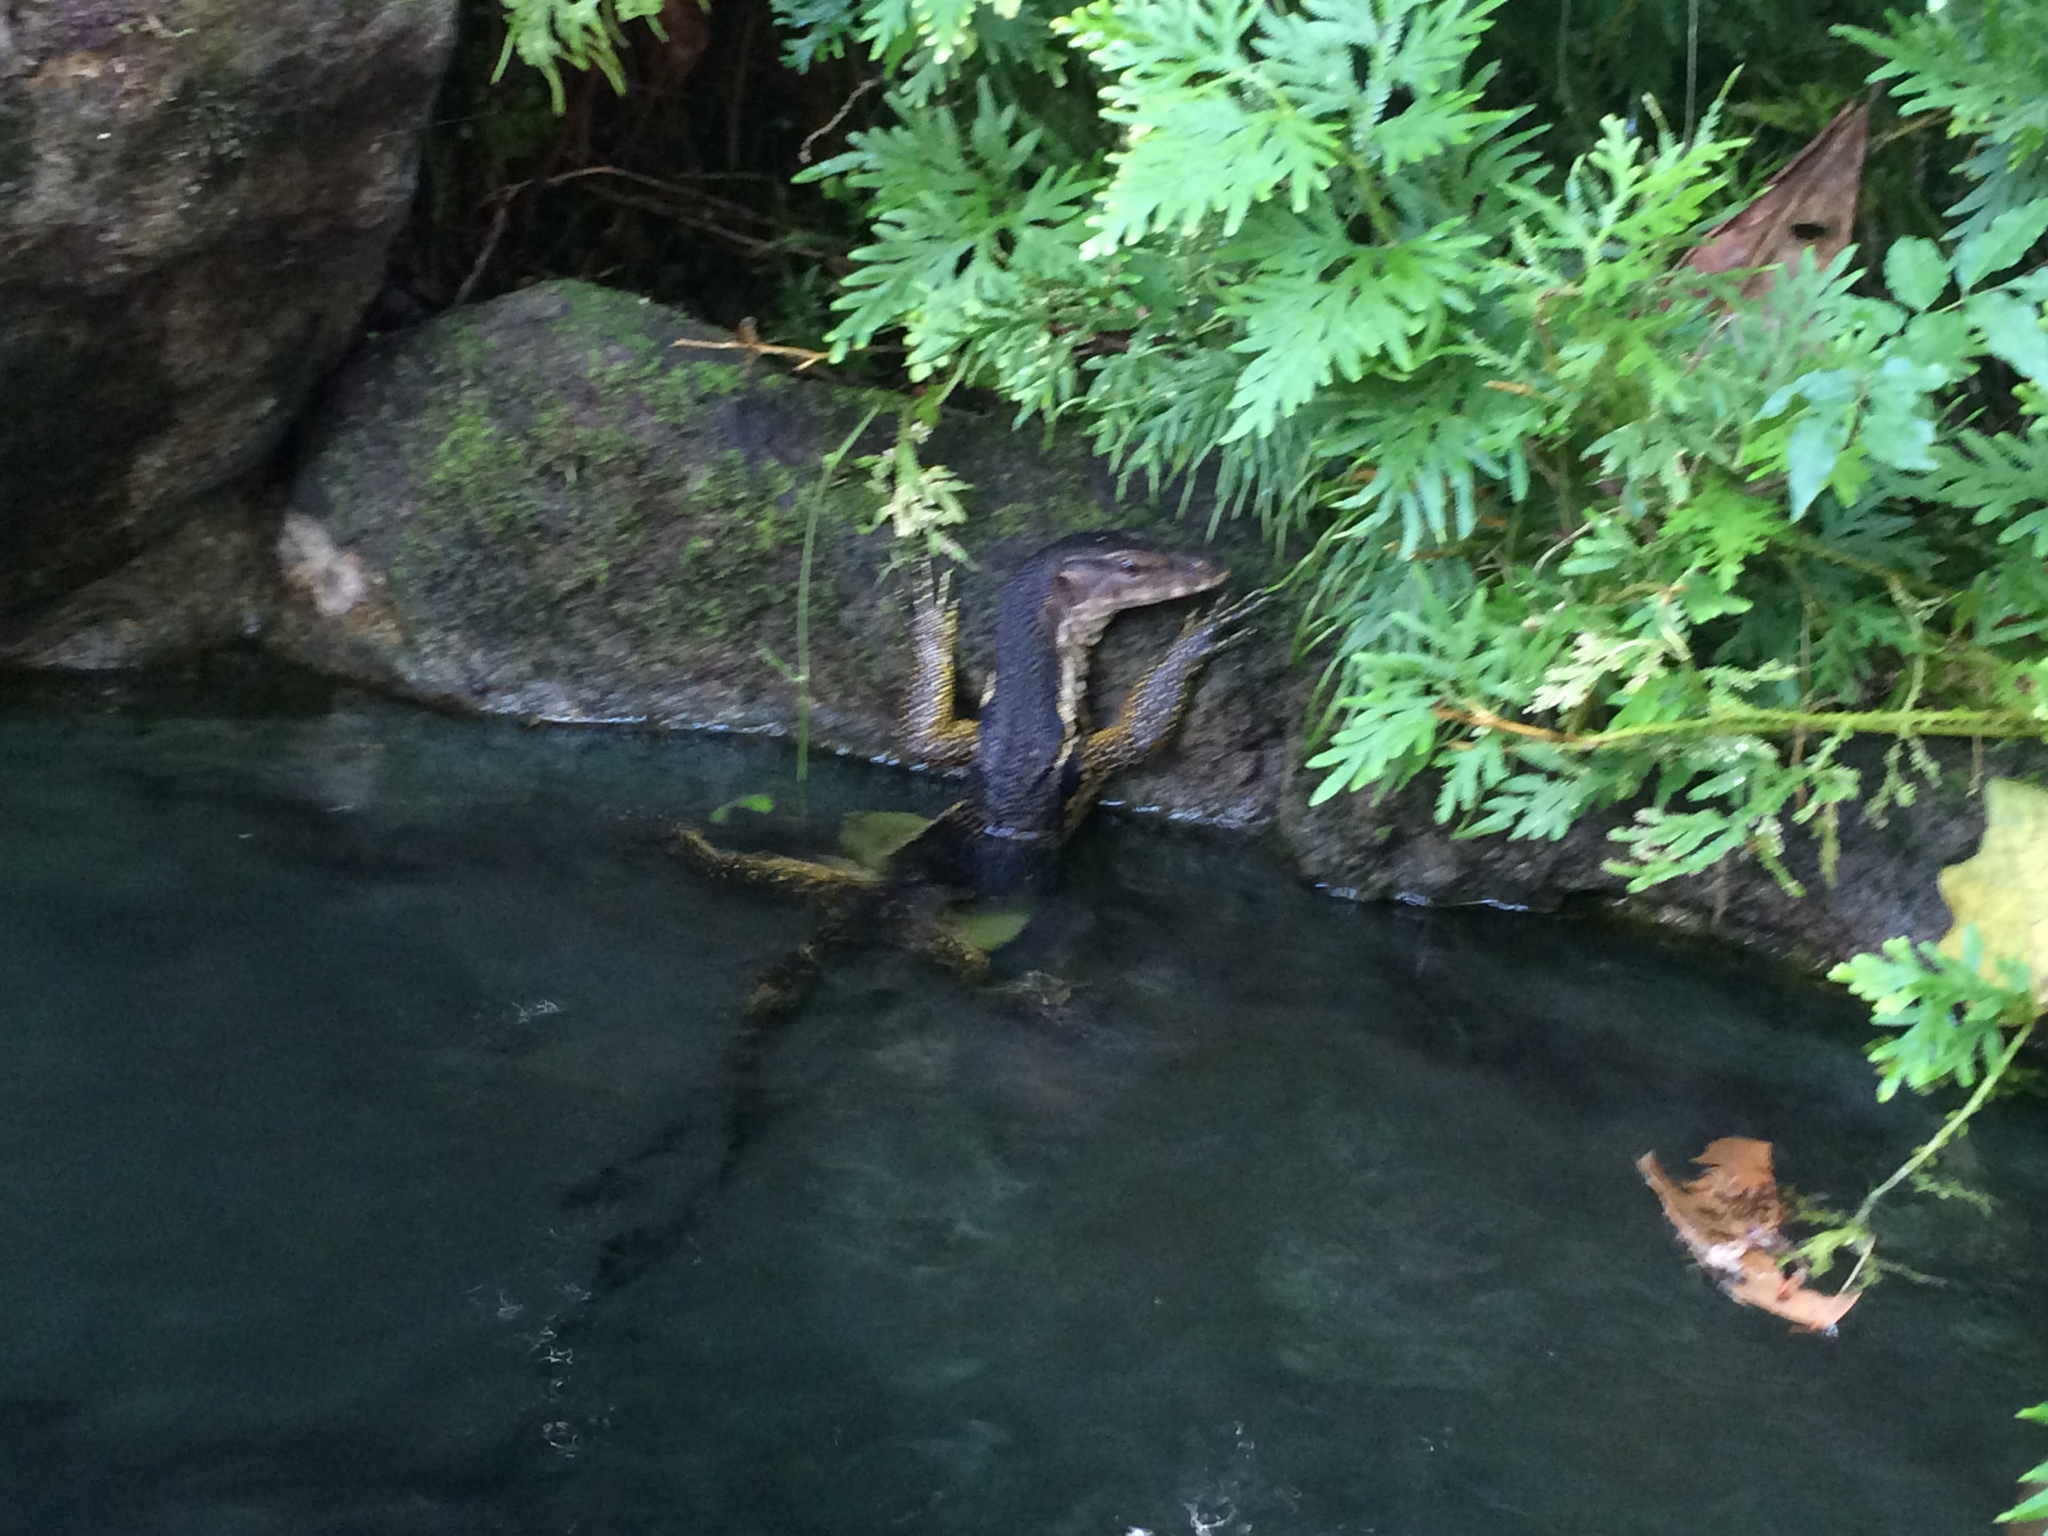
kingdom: Animalia
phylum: Chordata
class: Squamata
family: Varanidae
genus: Varanus
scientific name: Varanus marmoratus
